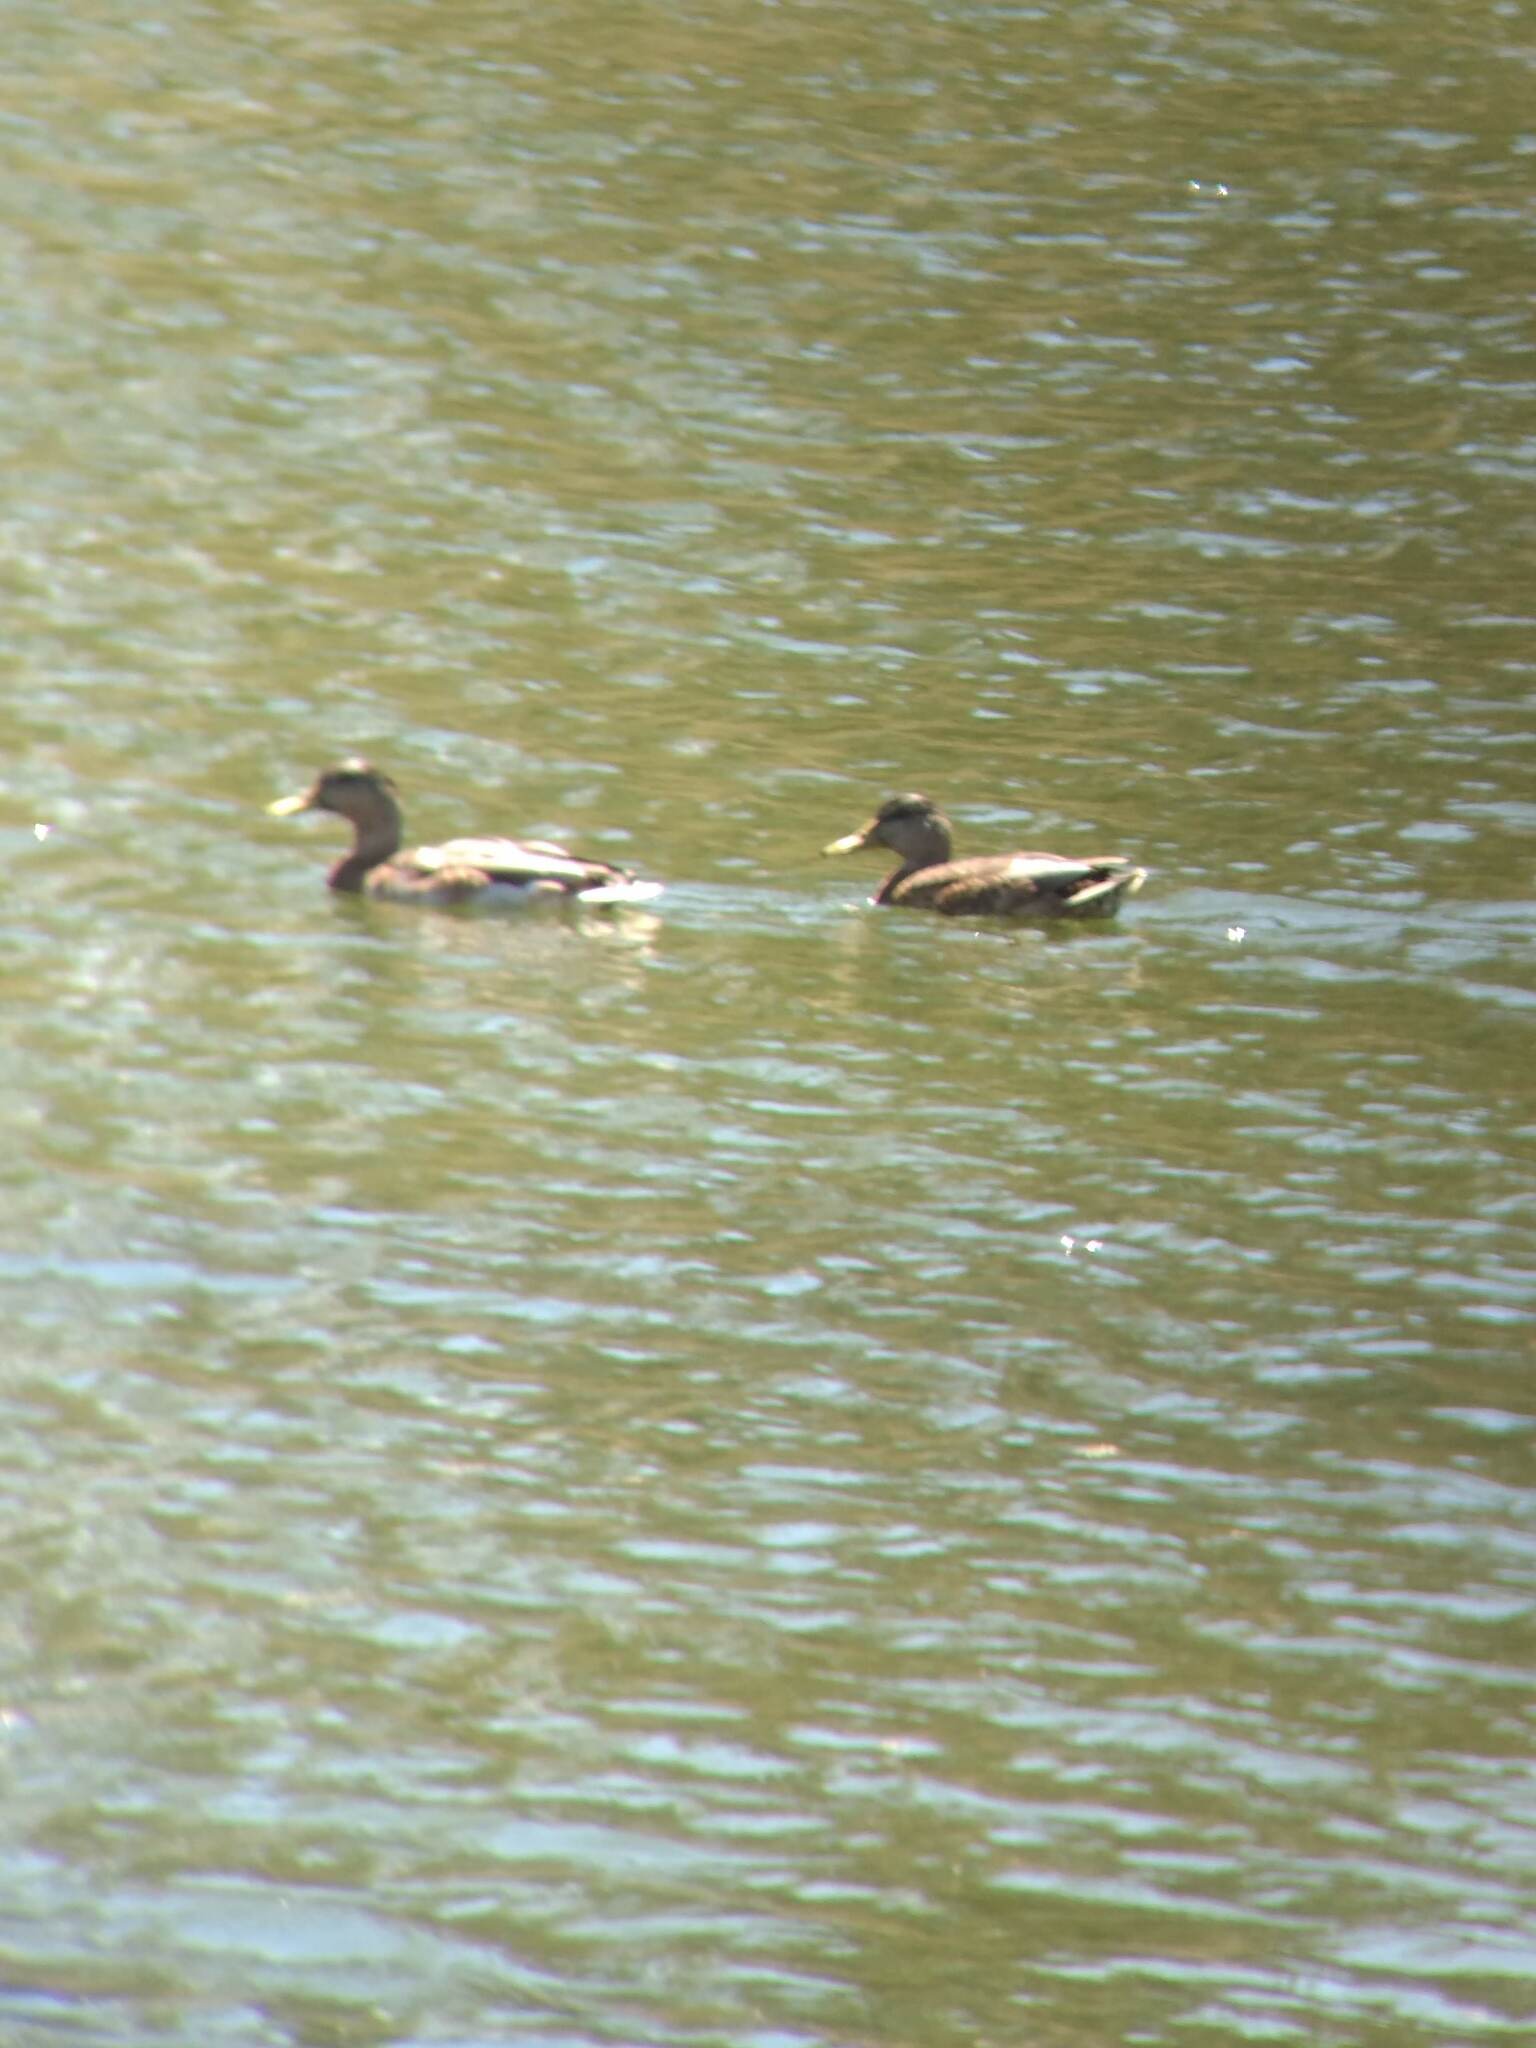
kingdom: Animalia
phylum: Chordata
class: Aves
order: Anseriformes
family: Anatidae
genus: Anas
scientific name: Anas platyrhynchos
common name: Mallard
